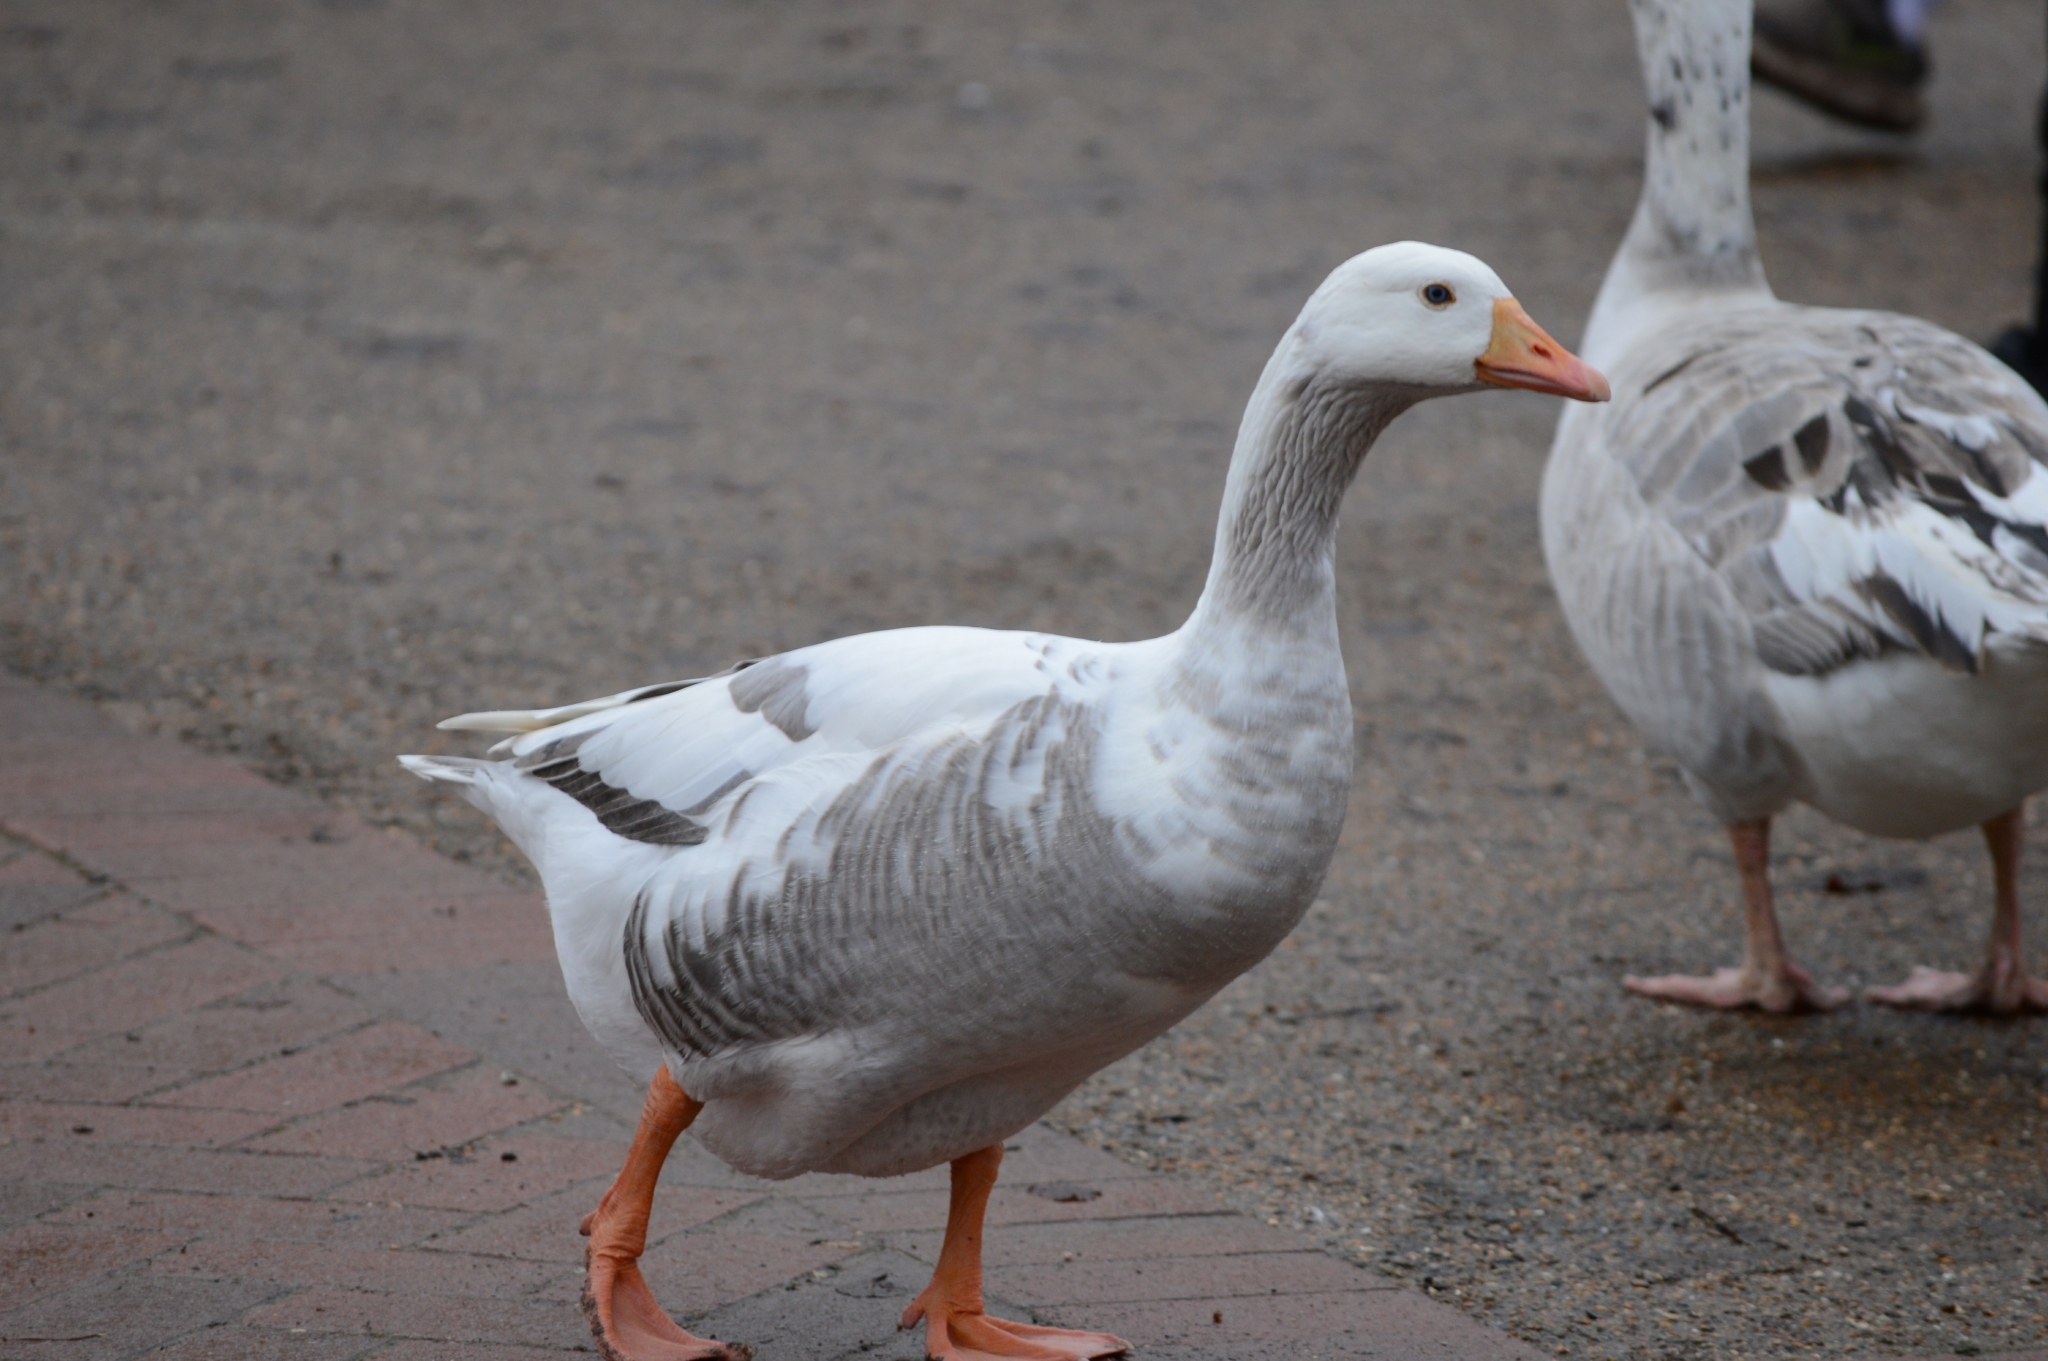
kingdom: Animalia
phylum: Chordata
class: Aves
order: Anseriformes
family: Anatidae
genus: Anser
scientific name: Anser anser
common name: Greylag goose
